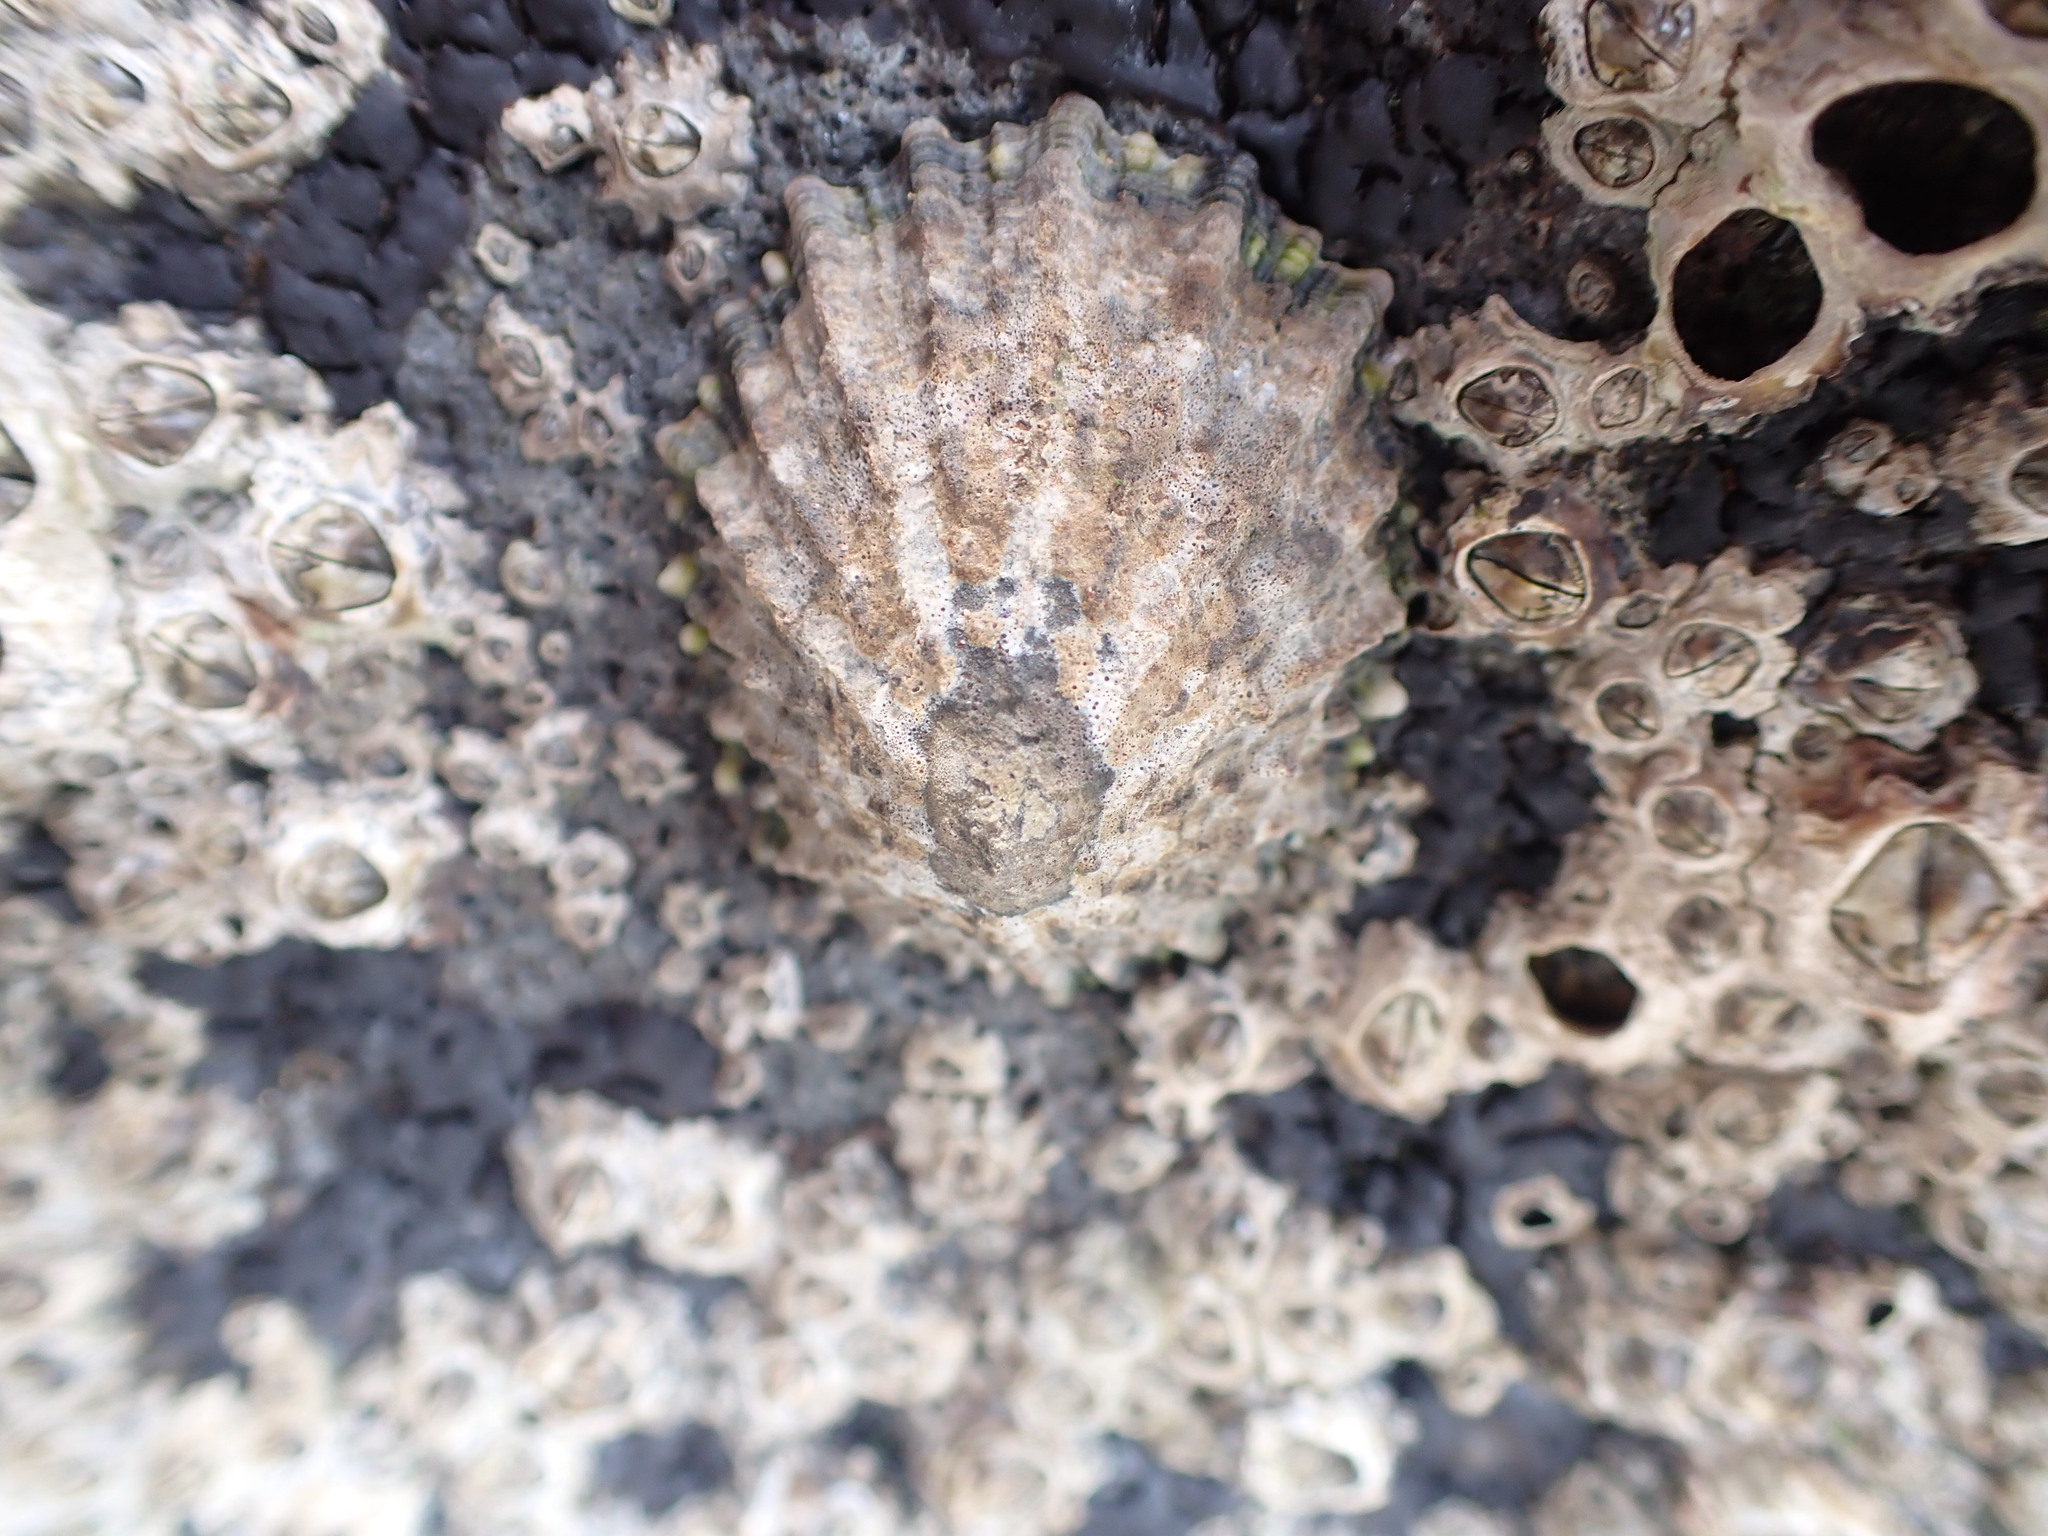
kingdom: Animalia
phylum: Mollusca
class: Gastropoda
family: Nacellidae
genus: Cellana
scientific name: Cellana ornata
